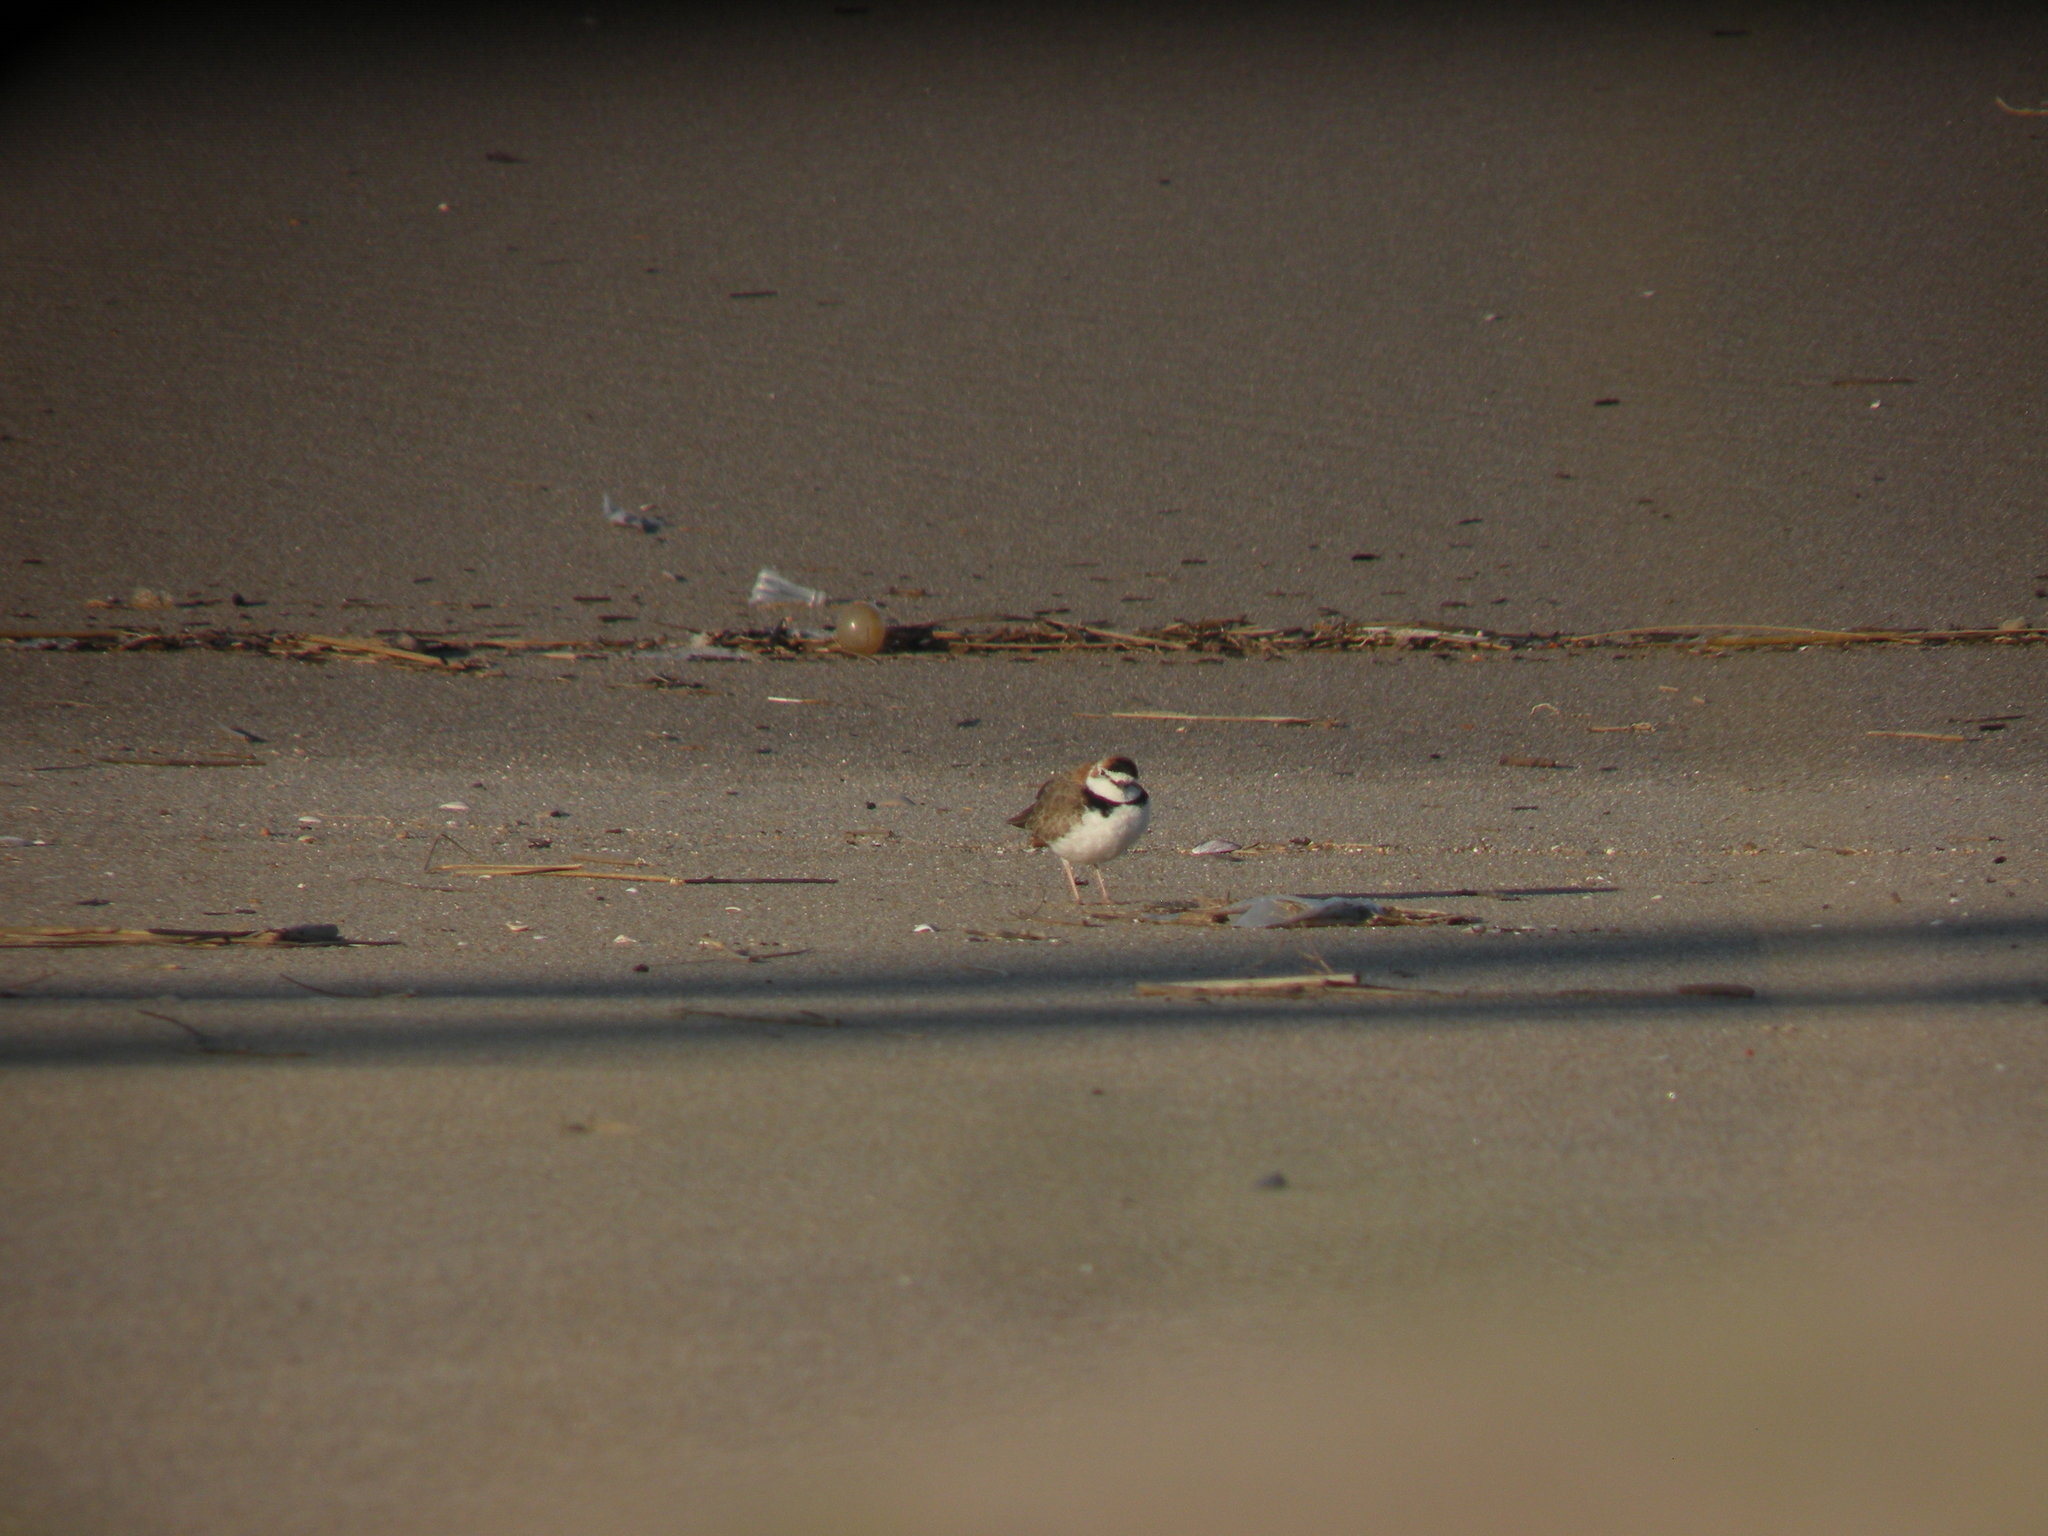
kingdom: Animalia
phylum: Chordata
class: Aves
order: Charadriiformes
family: Charadriidae
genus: Anarhynchus
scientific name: Anarhynchus
